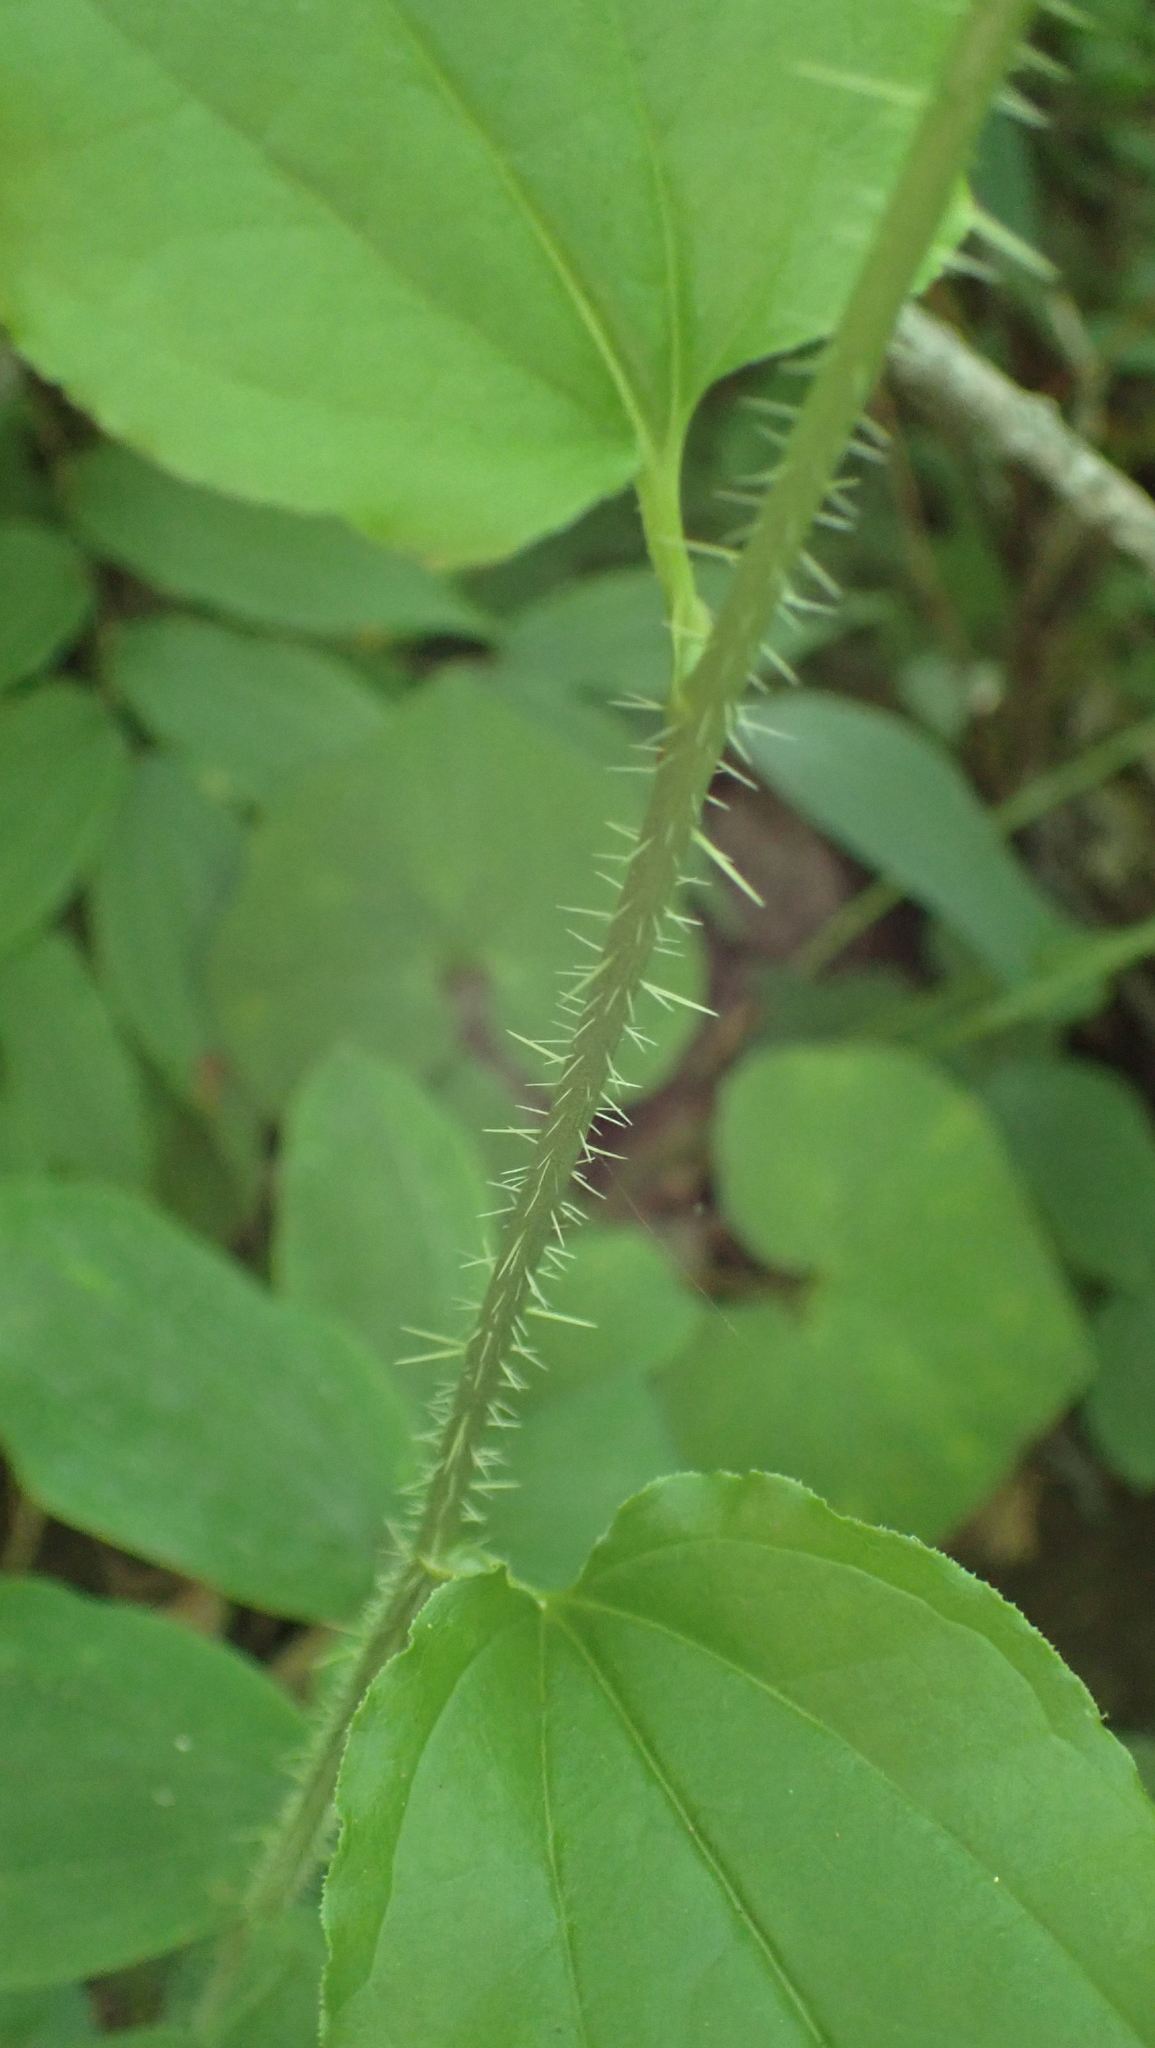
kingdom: Plantae
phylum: Tracheophyta
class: Liliopsida
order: Liliales
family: Smilacaceae
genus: Smilax
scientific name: Smilax tamnoides
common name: Hellfetter
